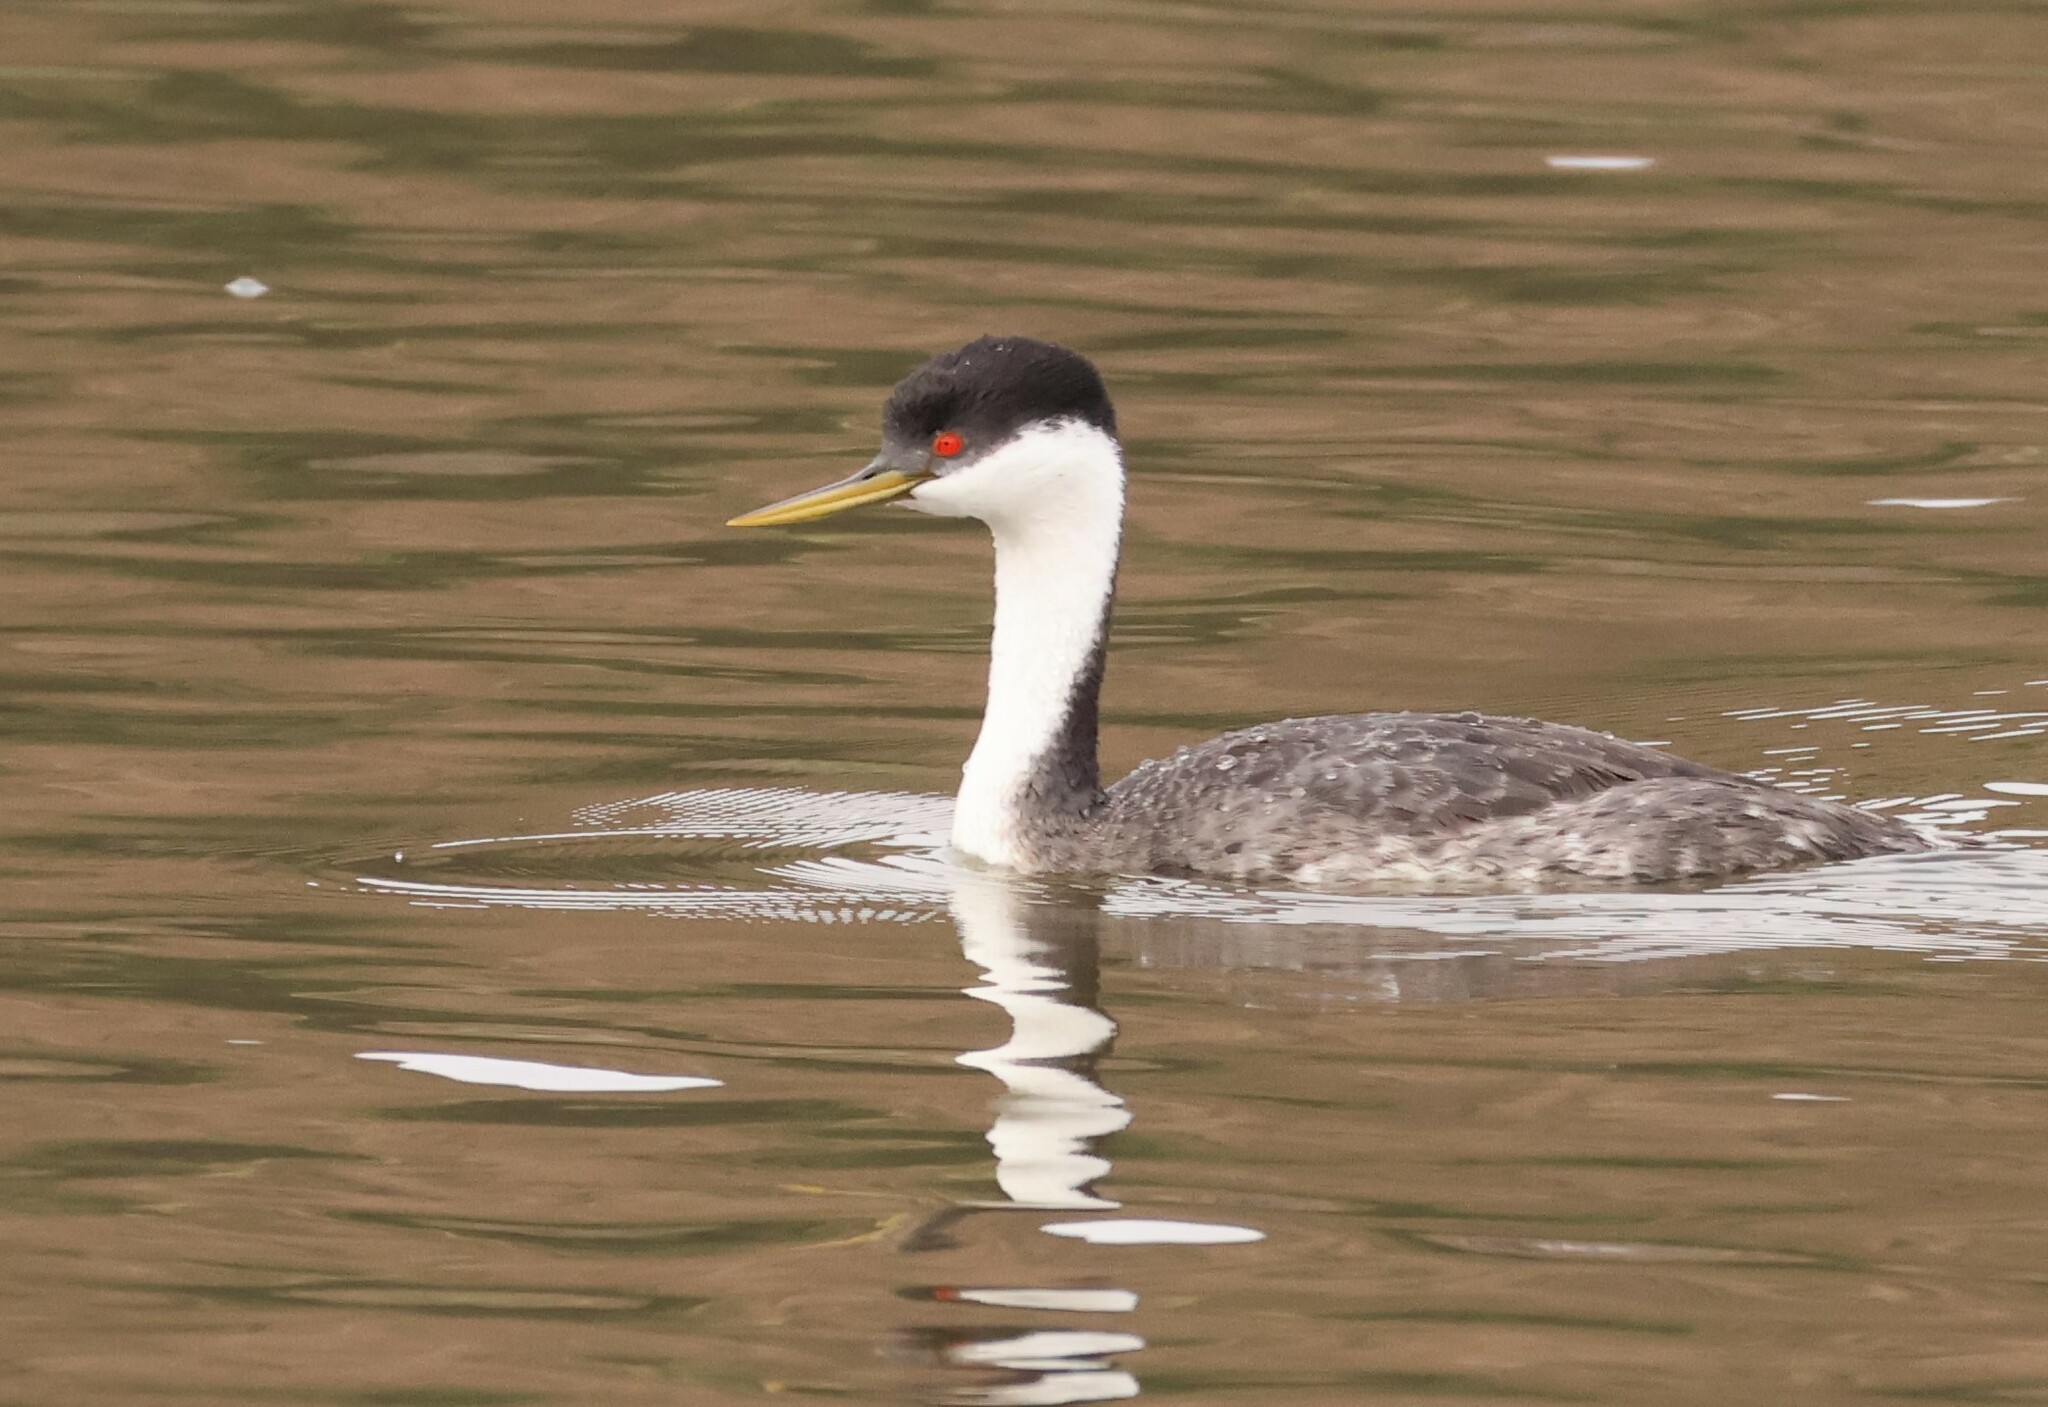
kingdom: Animalia
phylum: Chordata
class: Aves
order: Podicipediformes
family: Podicipedidae
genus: Aechmophorus
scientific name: Aechmophorus occidentalis
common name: Western grebe
